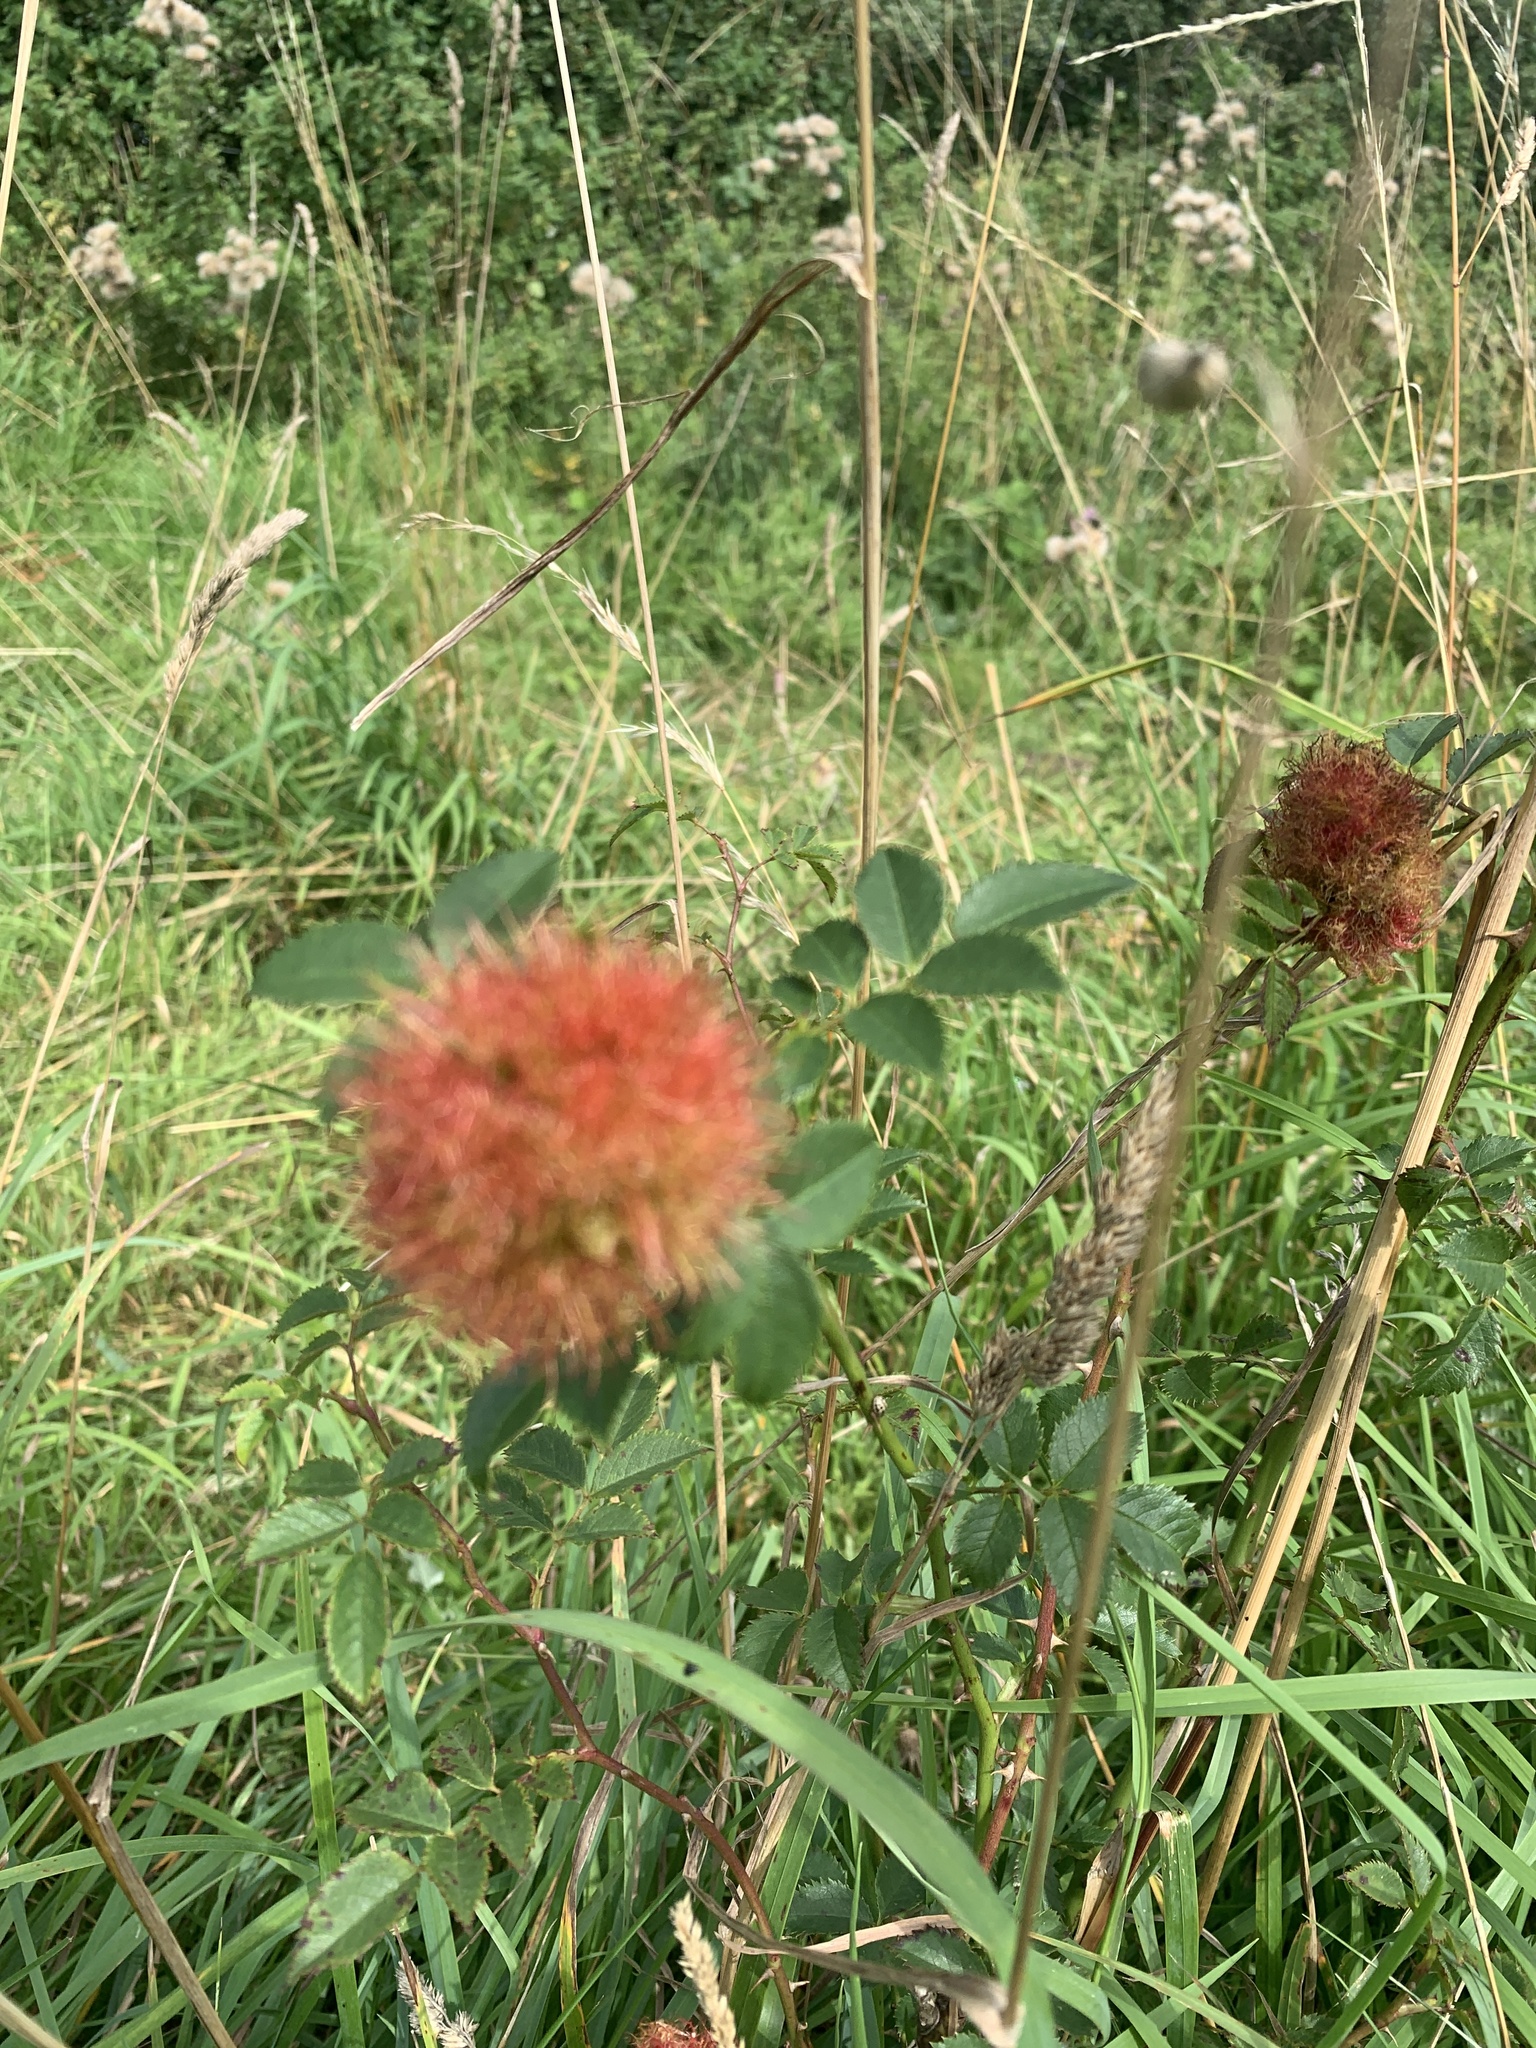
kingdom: Animalia
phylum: Arthropoda
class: Insecta
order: Hymenoptera
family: Cynipidae
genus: Diplolepis
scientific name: Diplolepis rosae
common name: Bedeguar gall
